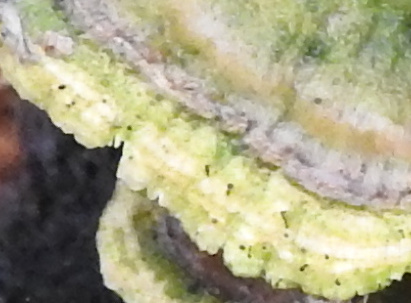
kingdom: Fungi
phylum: Ascomycota
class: Eurotiomycetes
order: Mycocaliciales
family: Mycocaliciaceae
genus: Phaeocalicium
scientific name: Phaeocalicium polyporaeum
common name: Fairy pins
